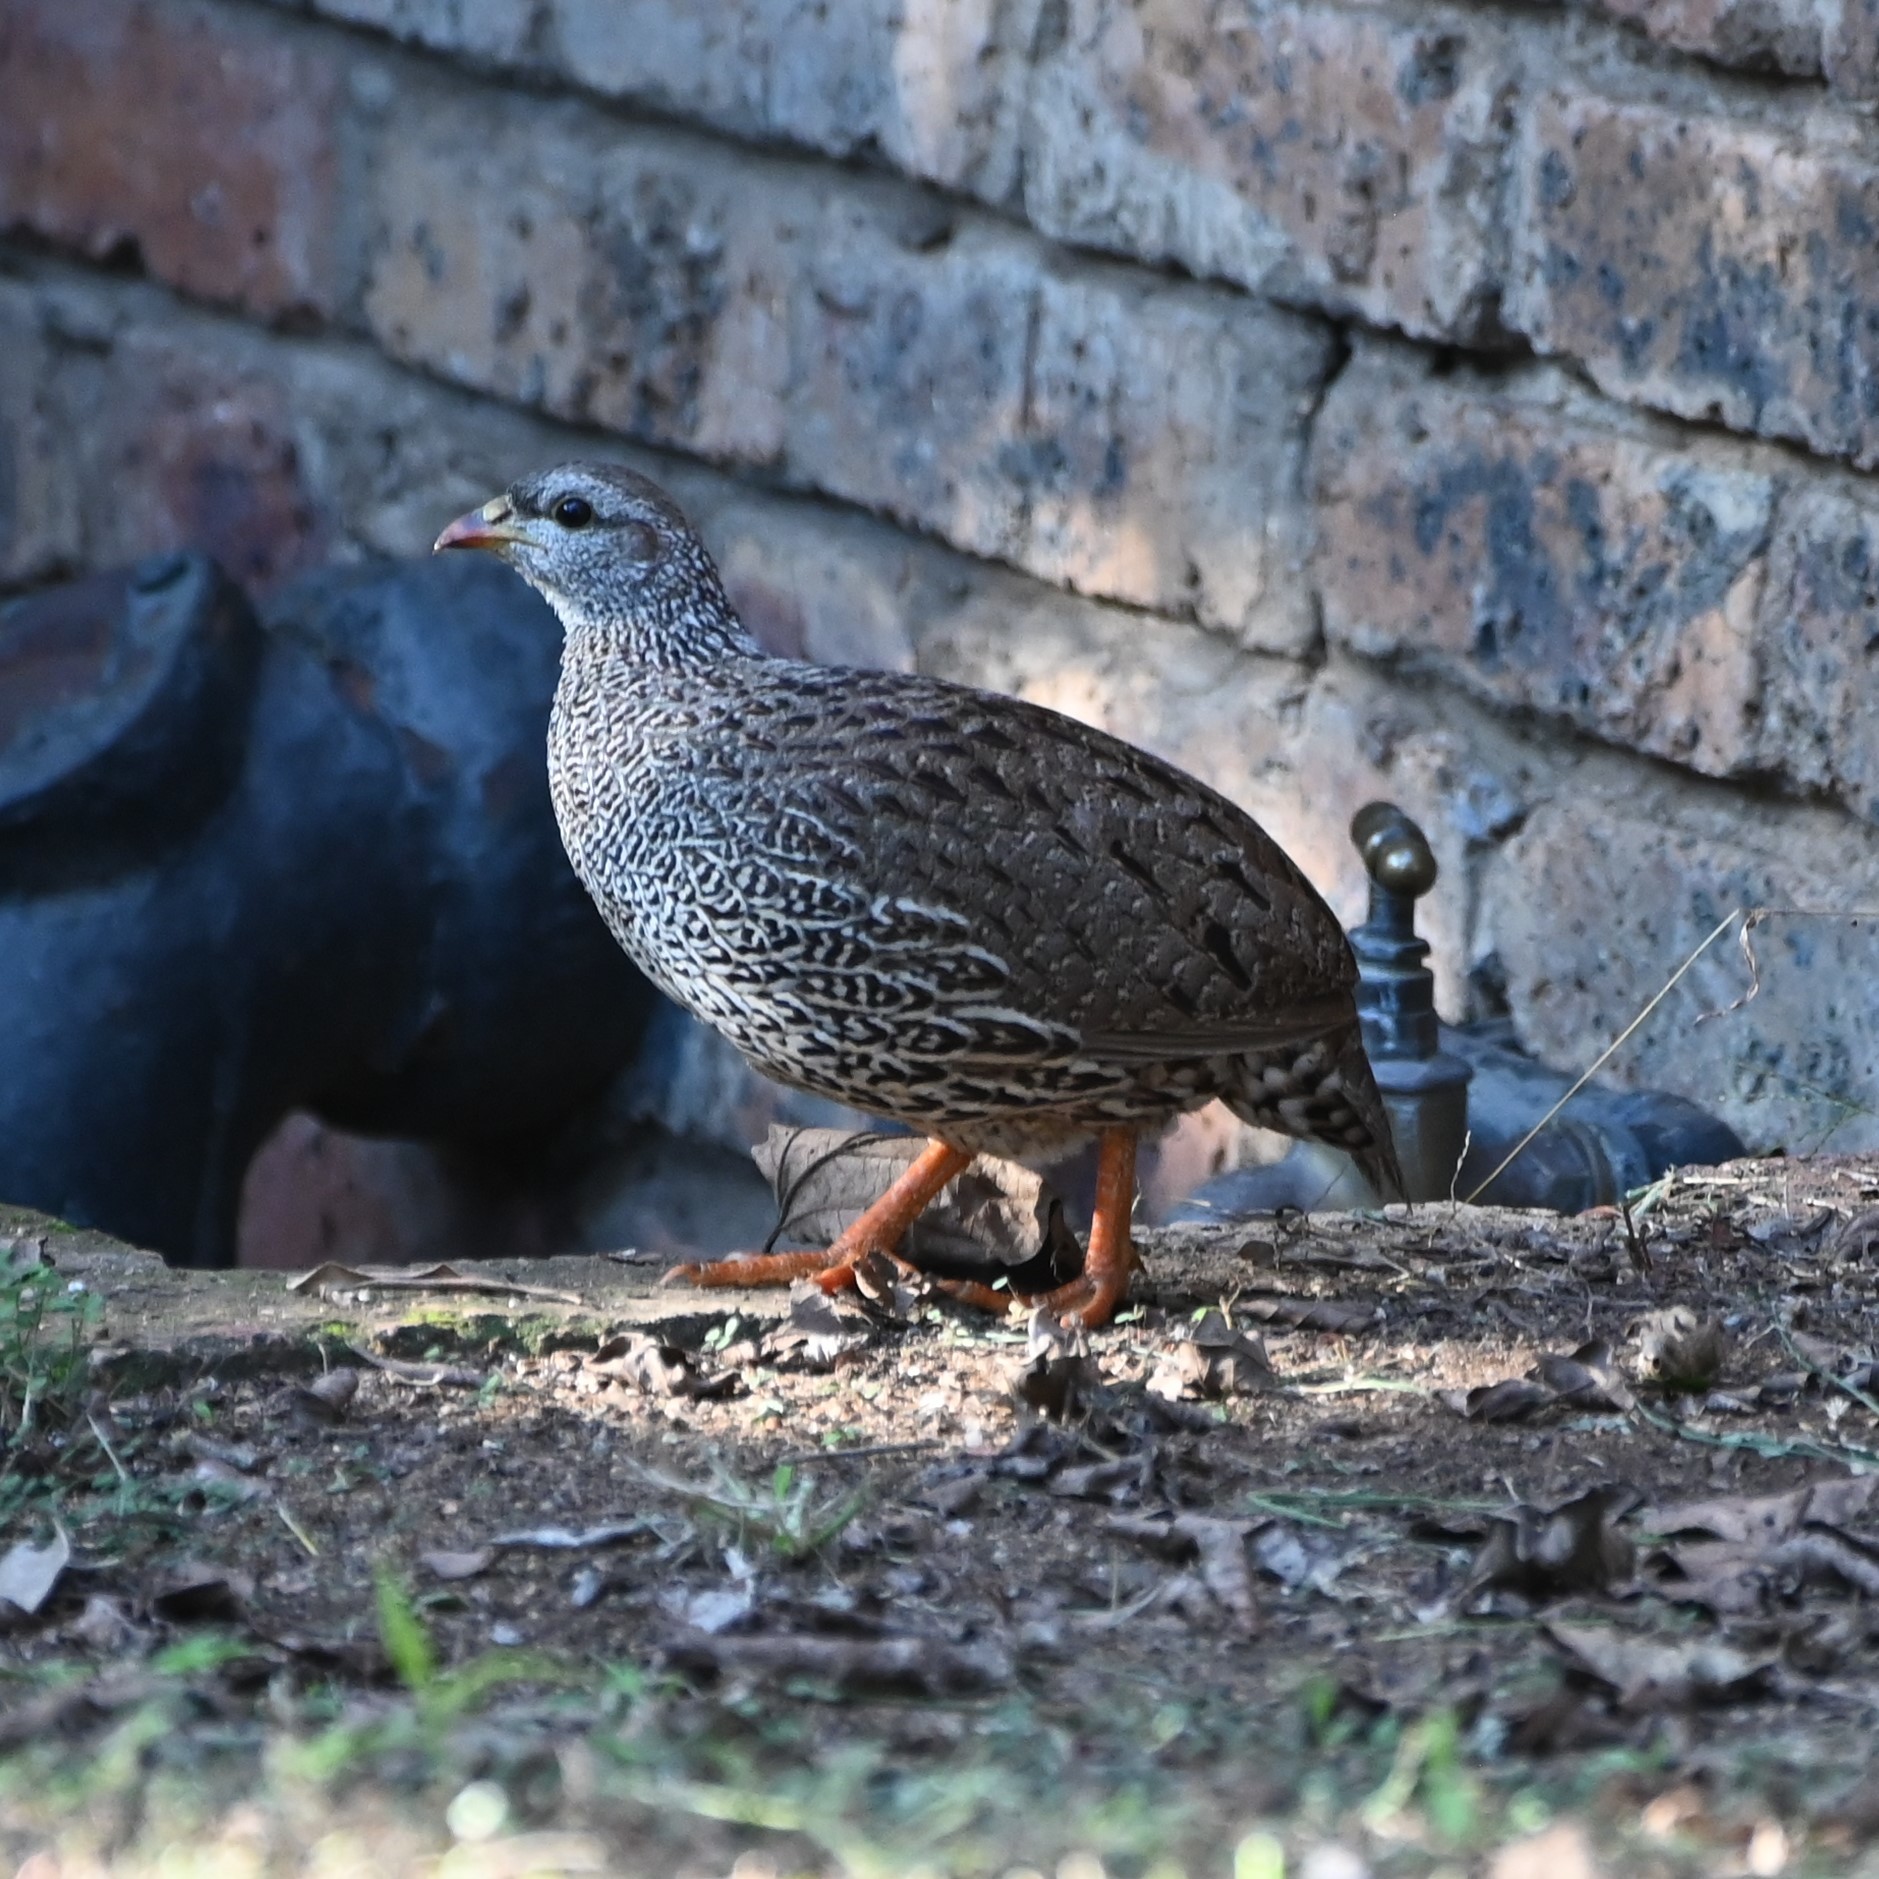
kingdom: Animalia
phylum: Chordata
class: Aves
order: Galliformes
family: Phasianidae
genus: Pternistis
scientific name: Pternistis natalensis
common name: Natal spurfowl
